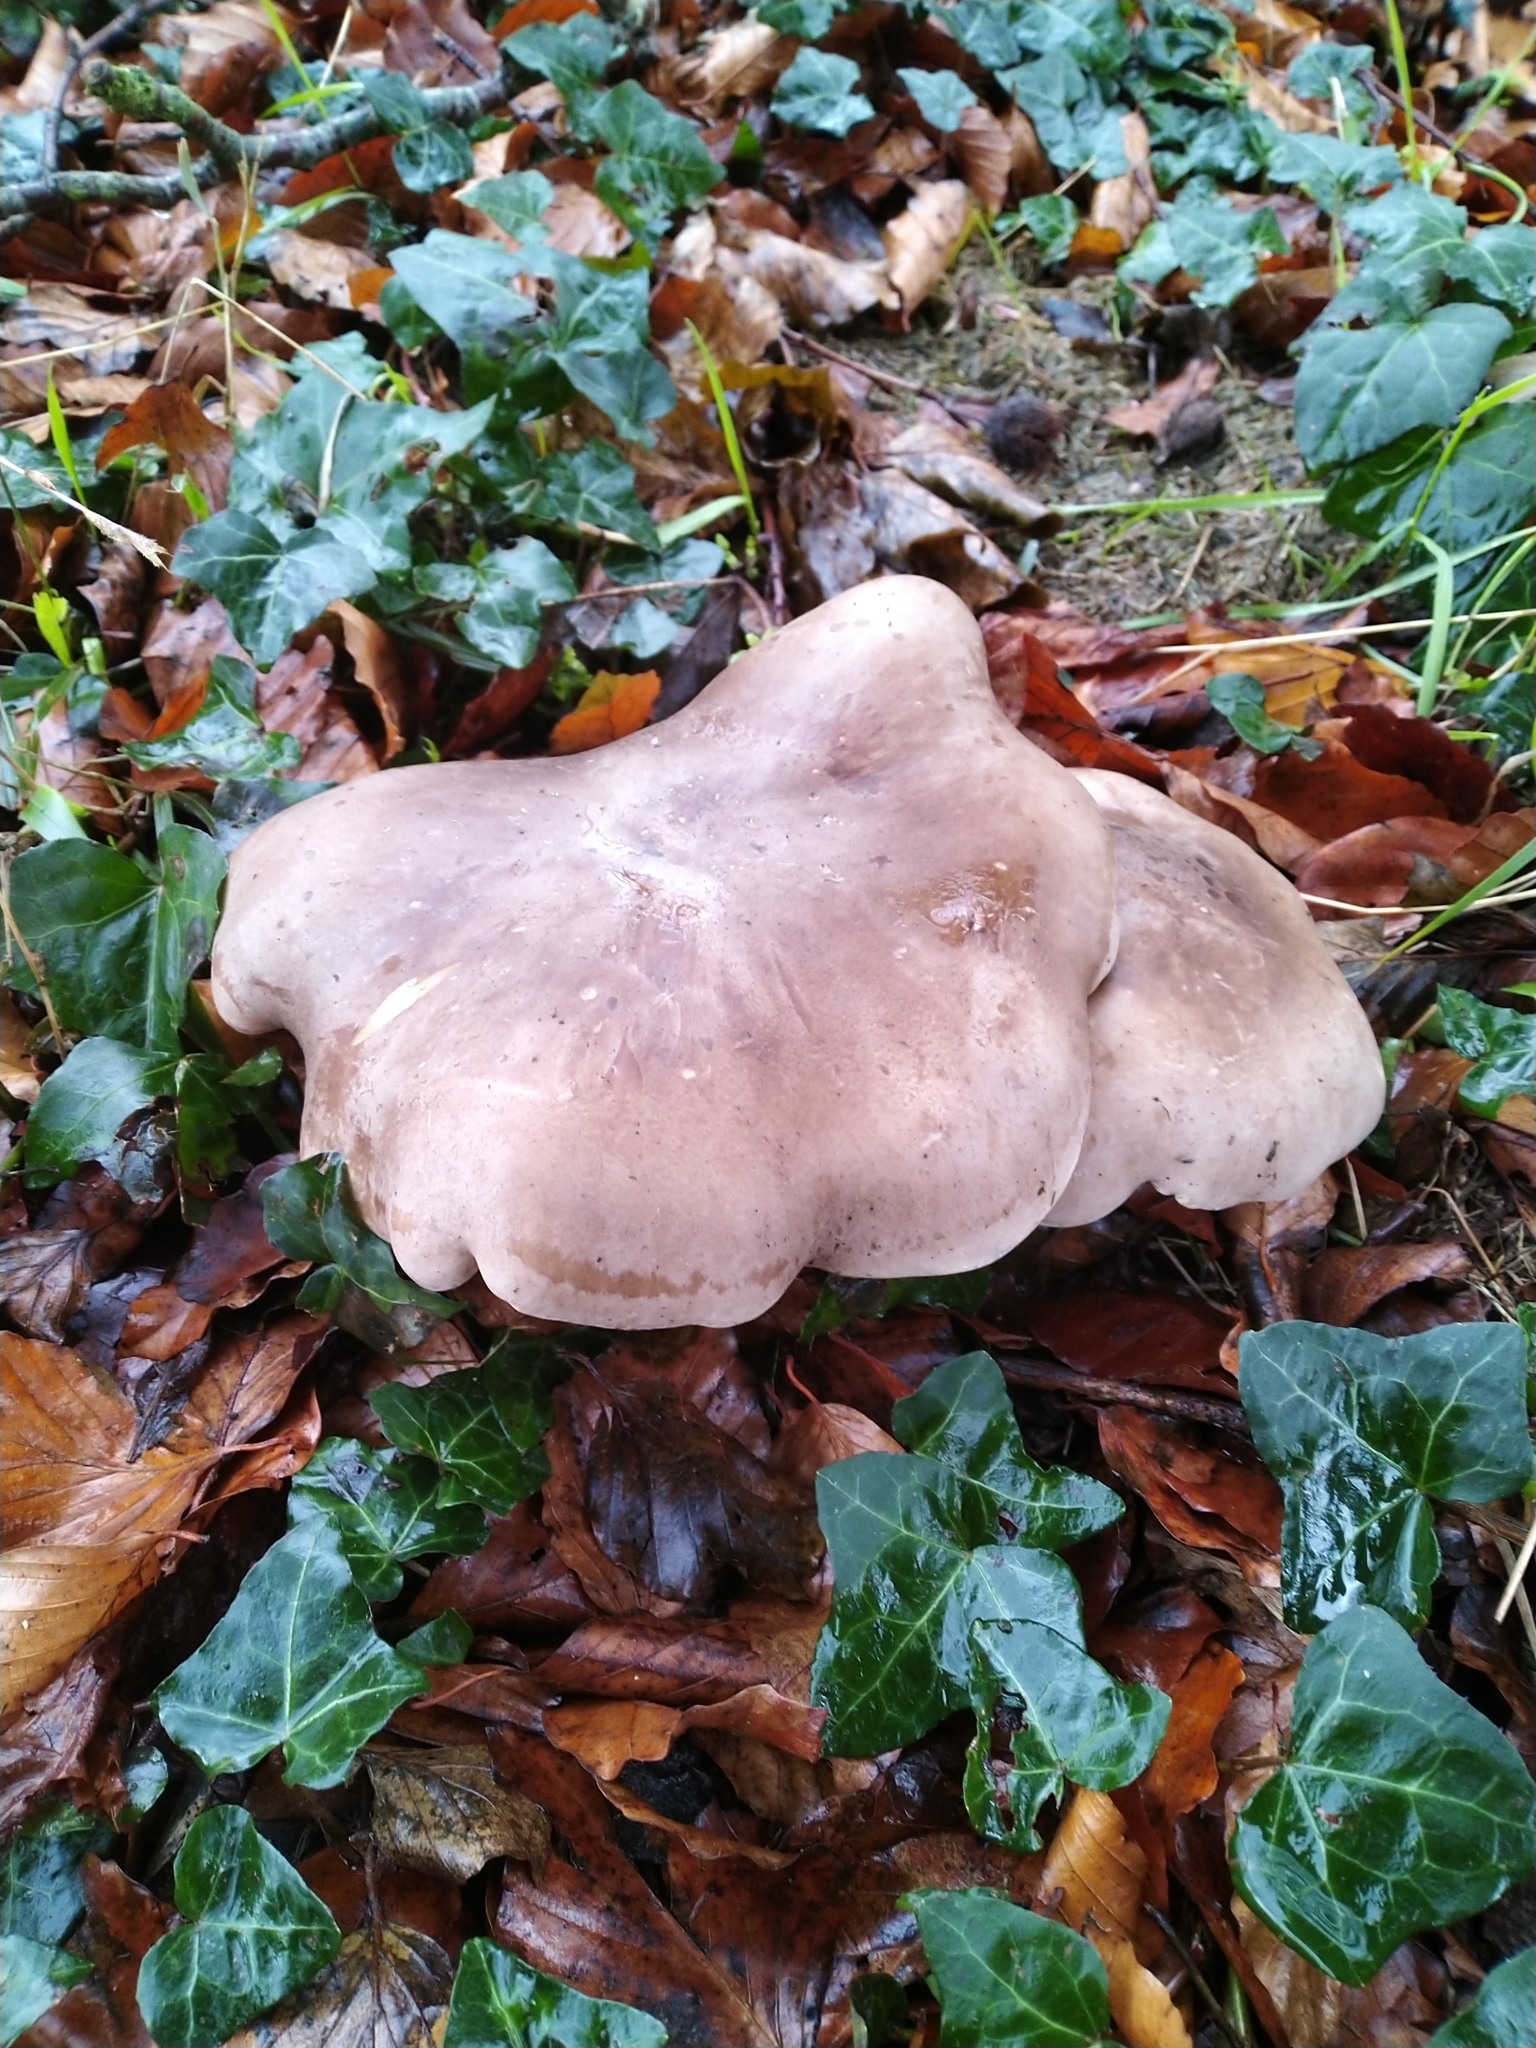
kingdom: Fungi
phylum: Basidiomycota
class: Agaricomycetes
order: Agaricales
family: Tricholomataceae
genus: Clitocybe
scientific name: Clitocybe nebularis
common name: Clouded agaric
